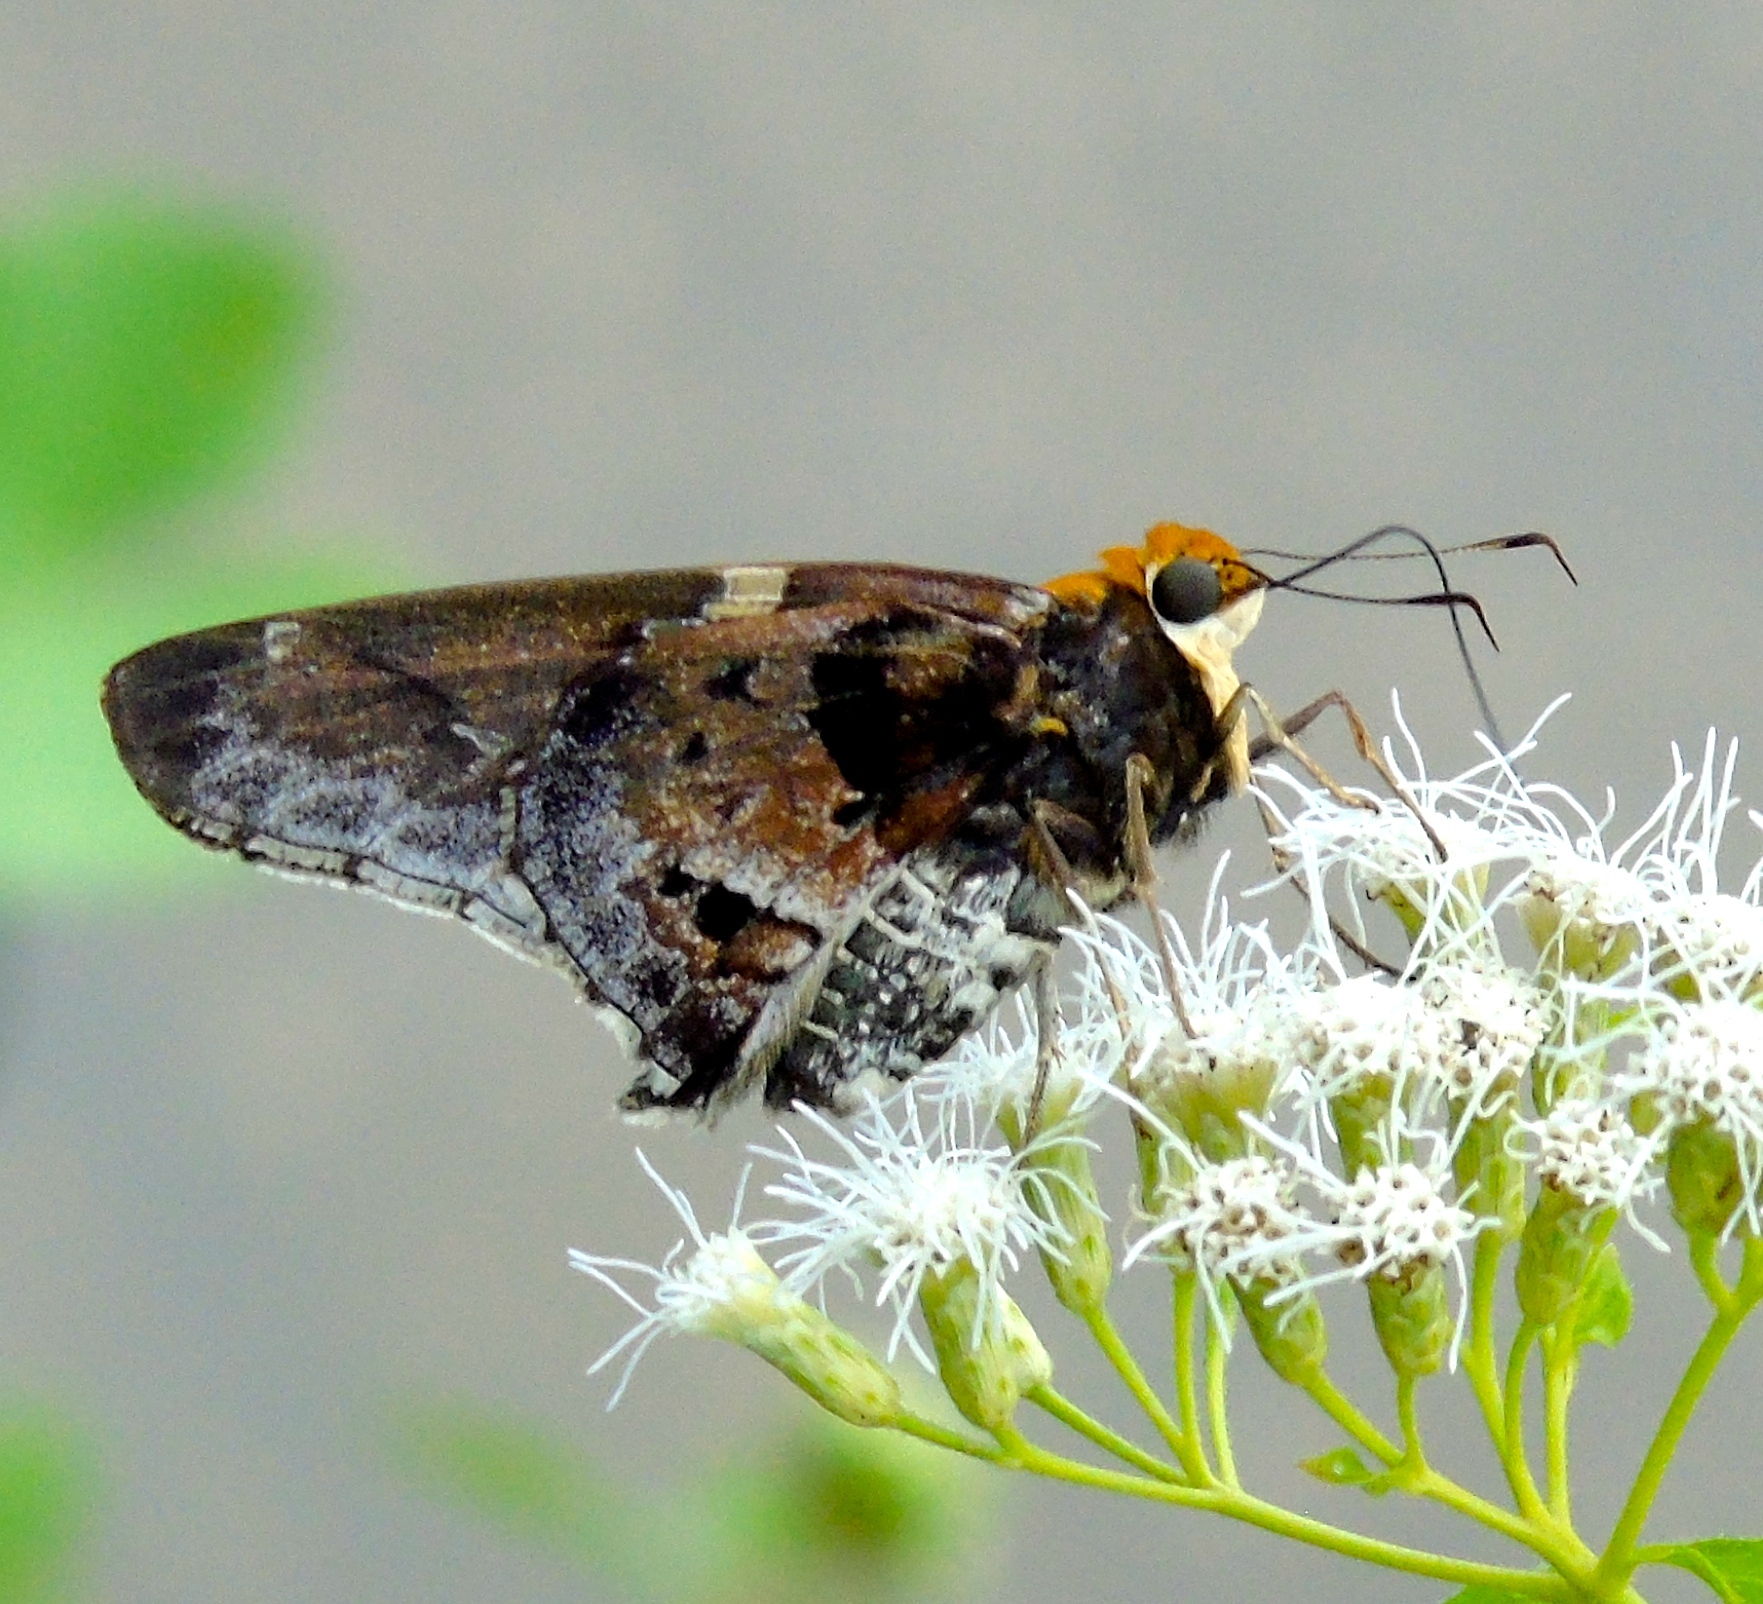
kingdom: Animalia
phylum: Arthropoda
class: Insecta
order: Lepidoptera
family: Hesperiidae
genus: Proteides
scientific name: Proteides mercurius
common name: Mercurial skipper
